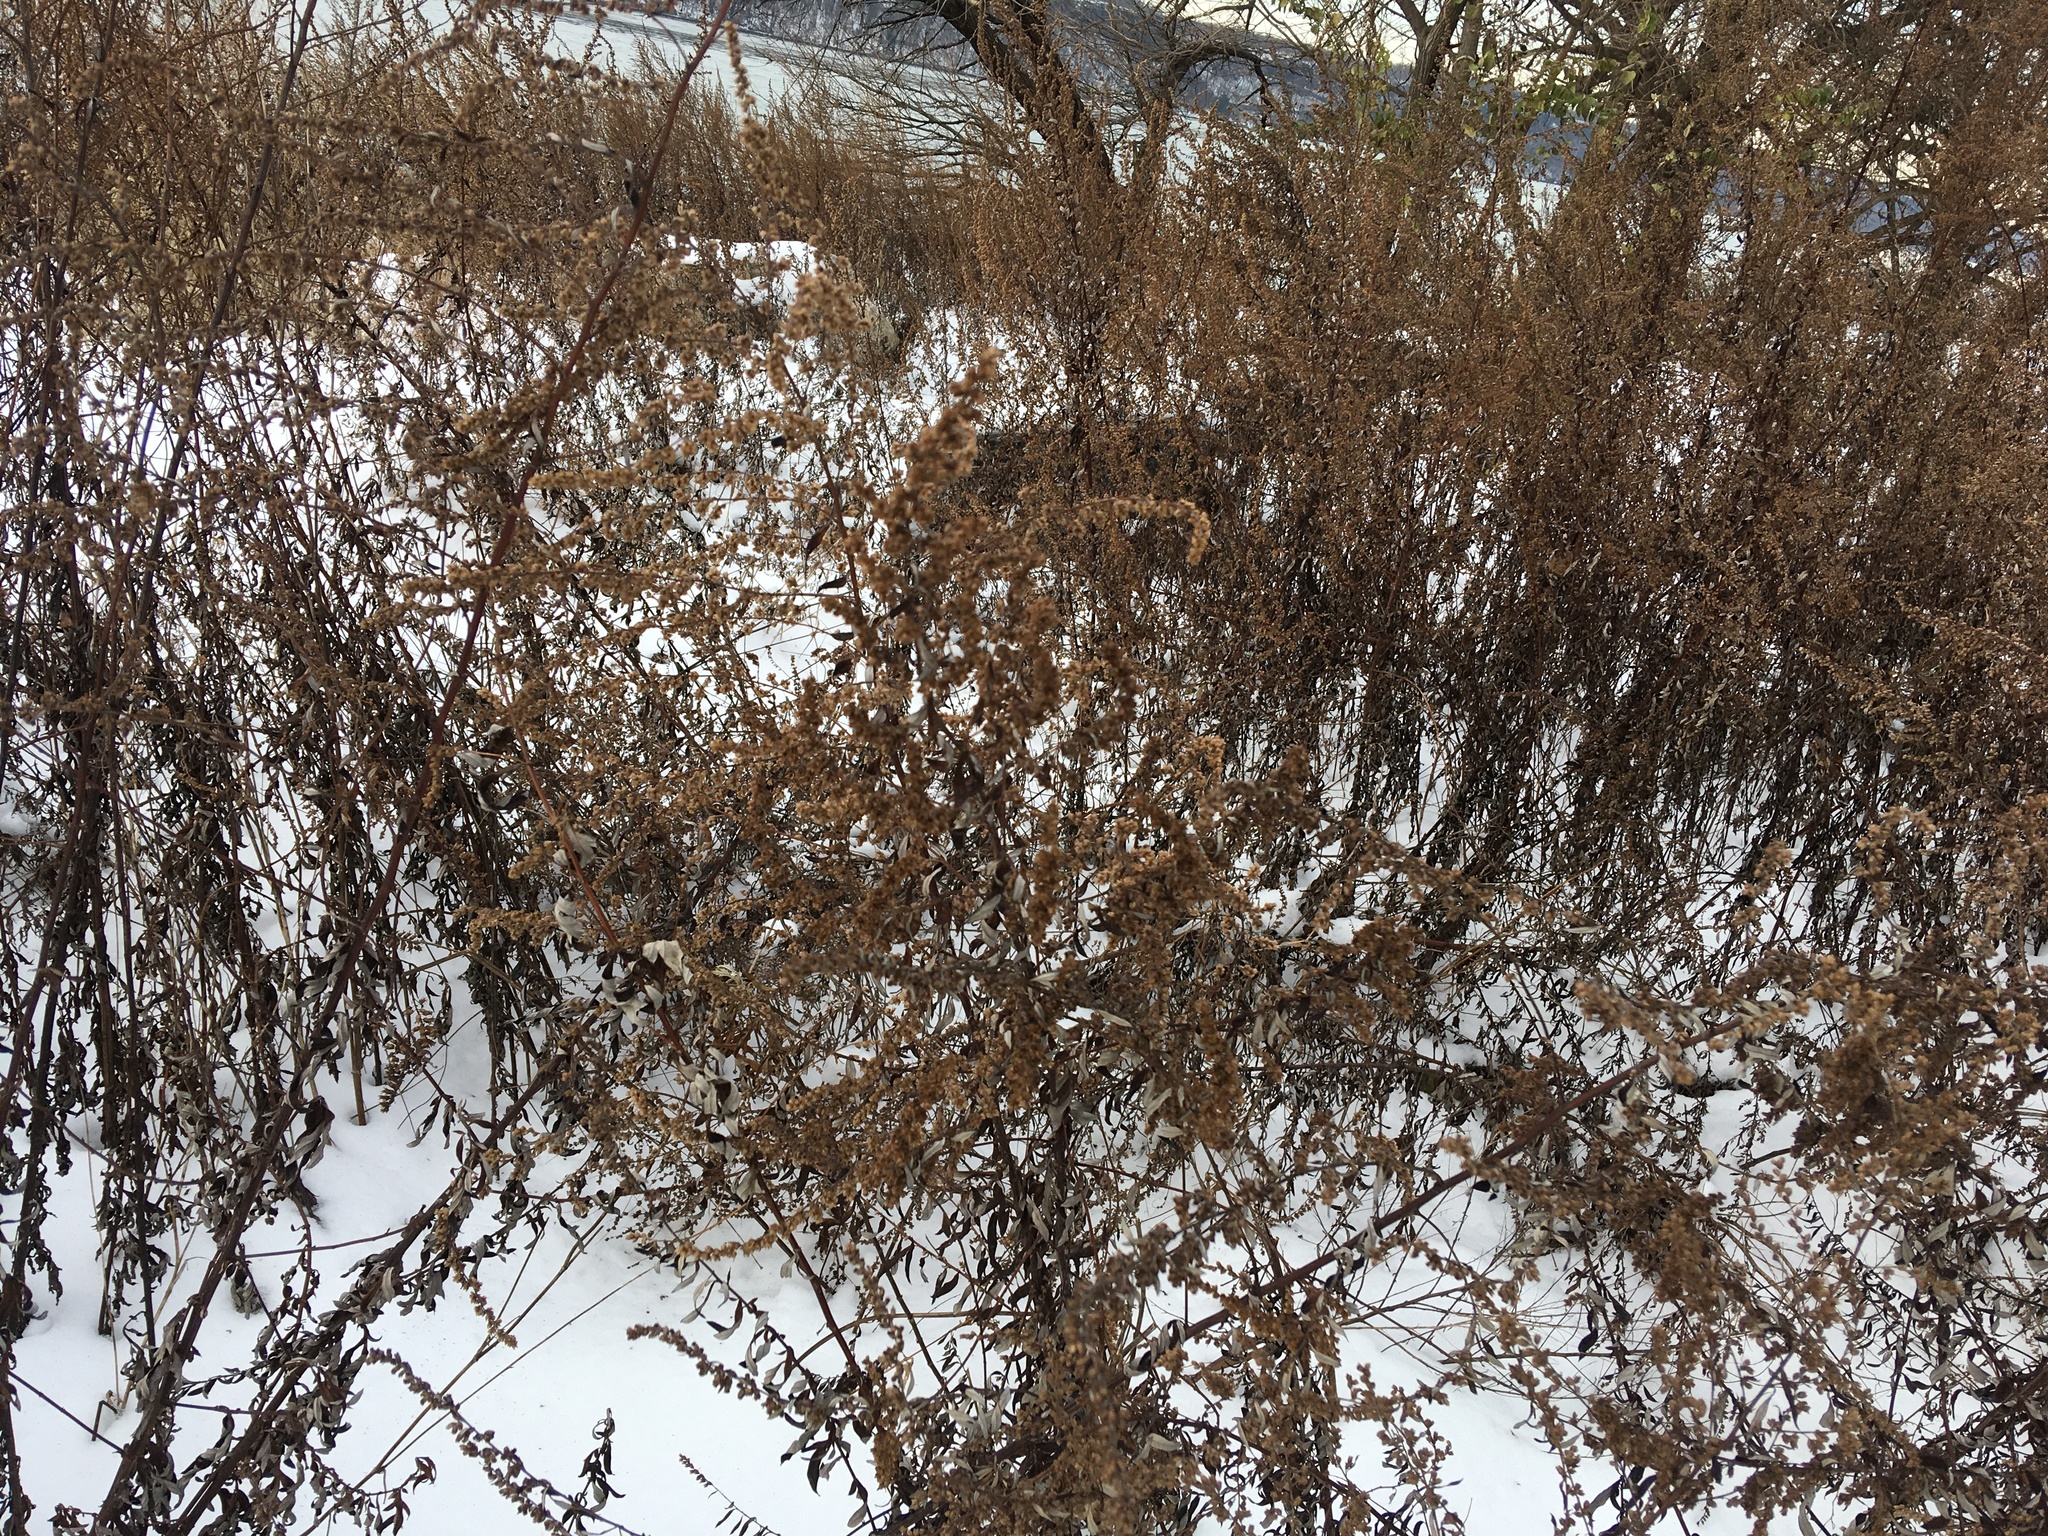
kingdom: Plantae
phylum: Tracheophyta
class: Magnoliopsida
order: Asterales
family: Asteraceae
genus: Artemisia
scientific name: Artemisia vulgaris
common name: Mugwort
